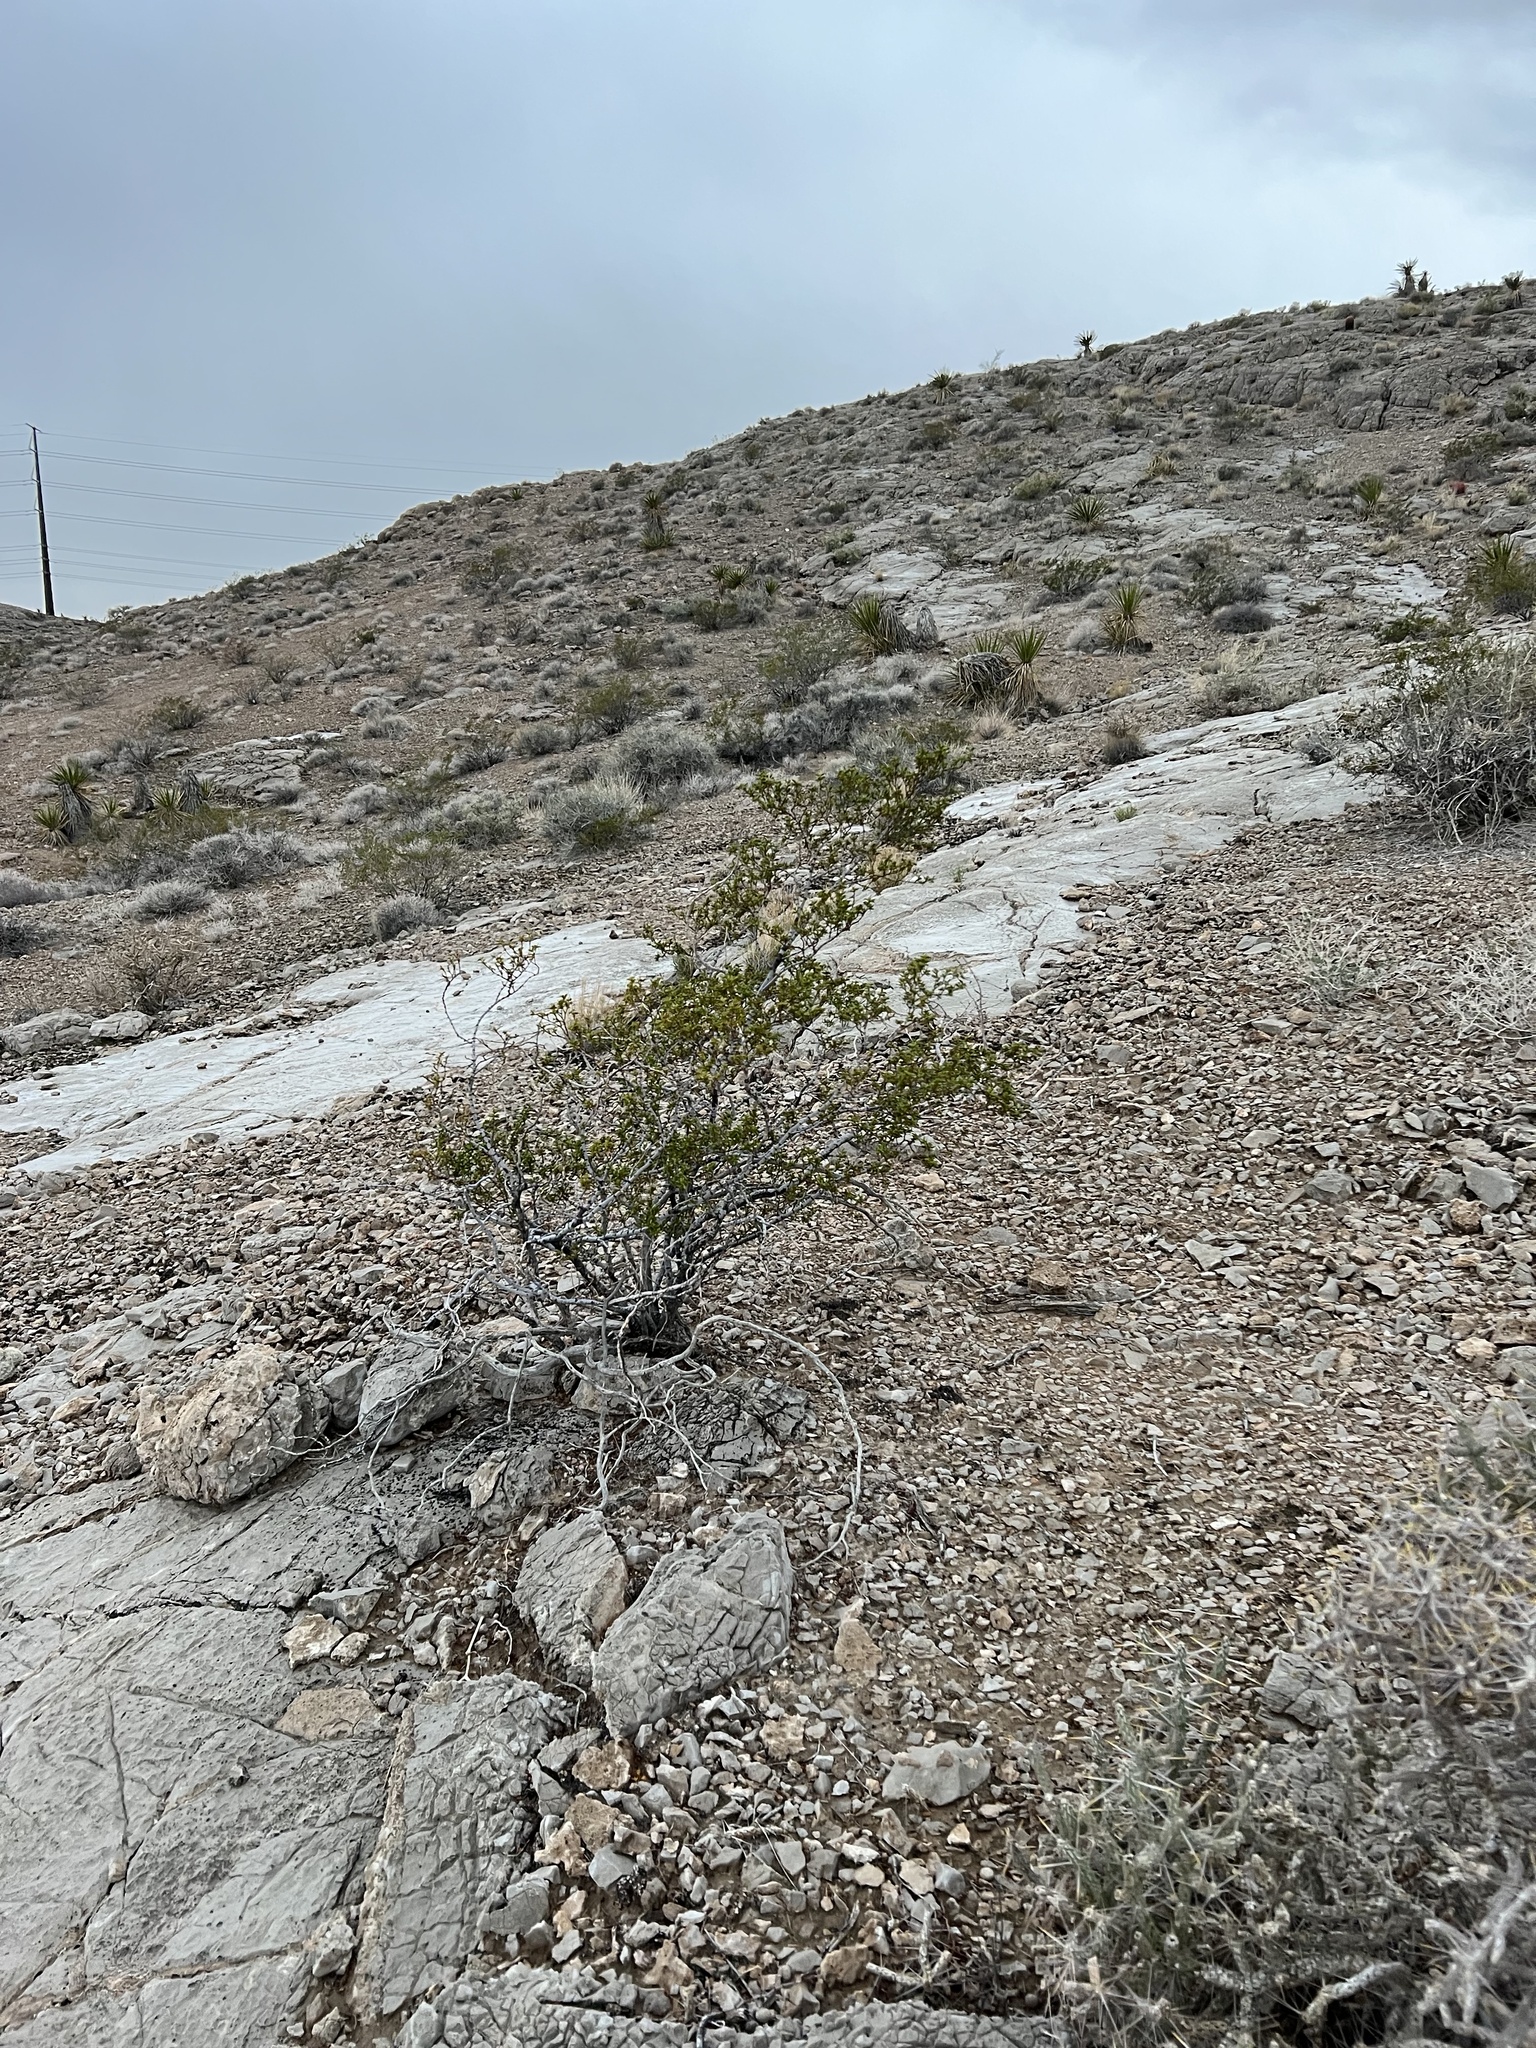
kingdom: Plantae
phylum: Tracheophyta
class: Magnoliopsida
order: Zygophyllales
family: Zygophyllaceae
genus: Larrea
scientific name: Larrea tridentata
